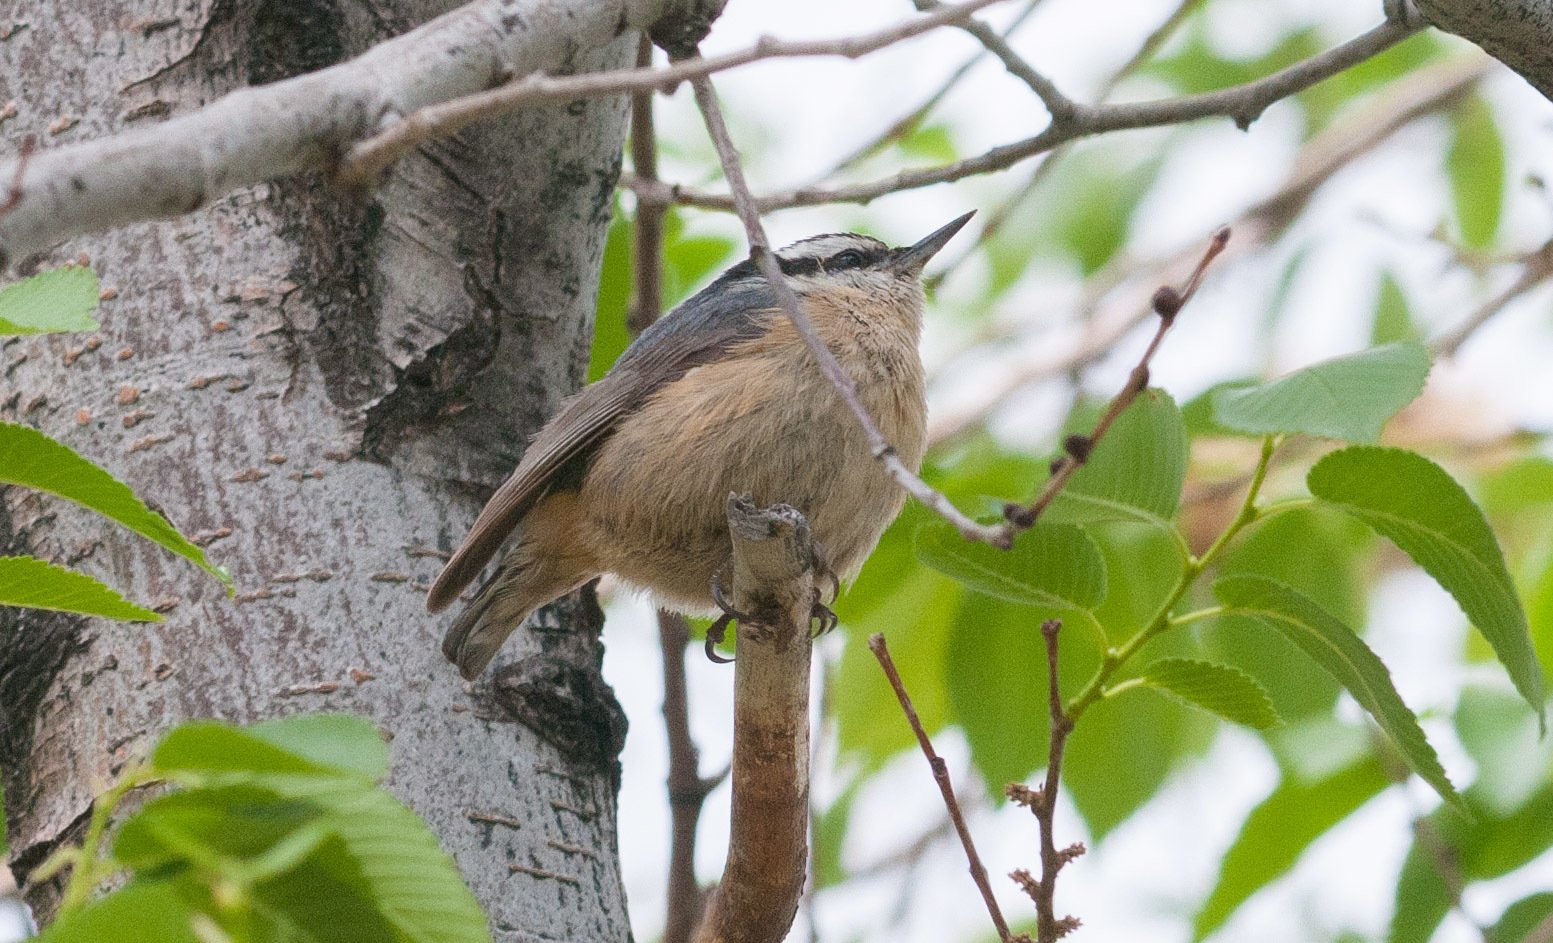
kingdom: Animalia
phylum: Chordata
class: Aves
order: Passeriformes
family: Sittidae
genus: Sitta
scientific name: Sitta canadensis
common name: Red-breasted nuthatch
